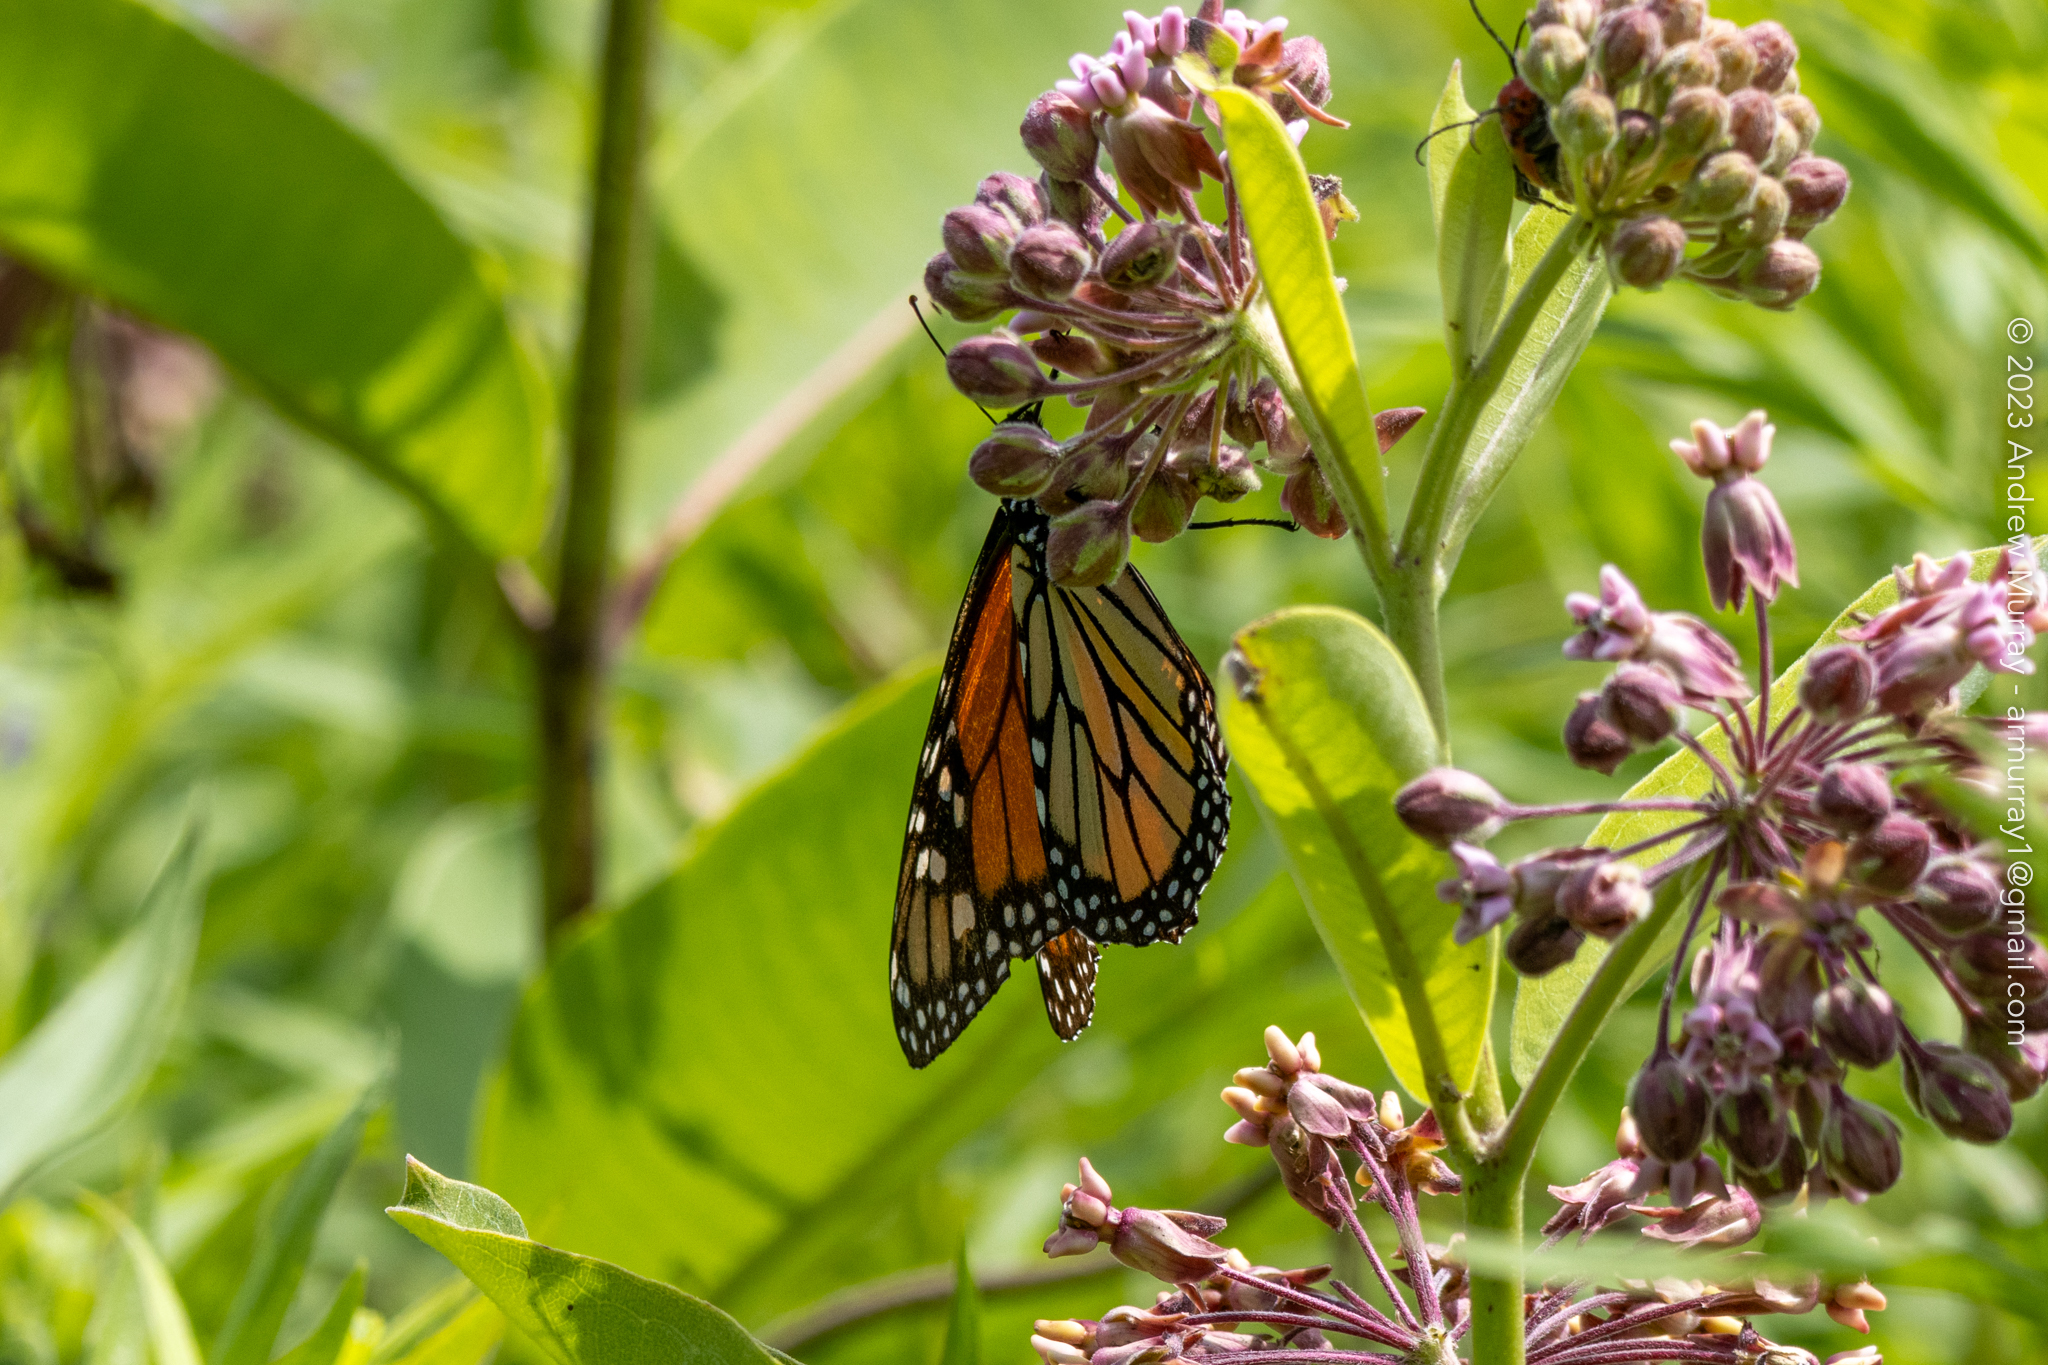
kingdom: Animalia
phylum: Arthropoda
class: Insecta
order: Lepidoptera
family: Nymphalidae
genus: Danaus
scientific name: Danaus plexippus
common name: Monarch
